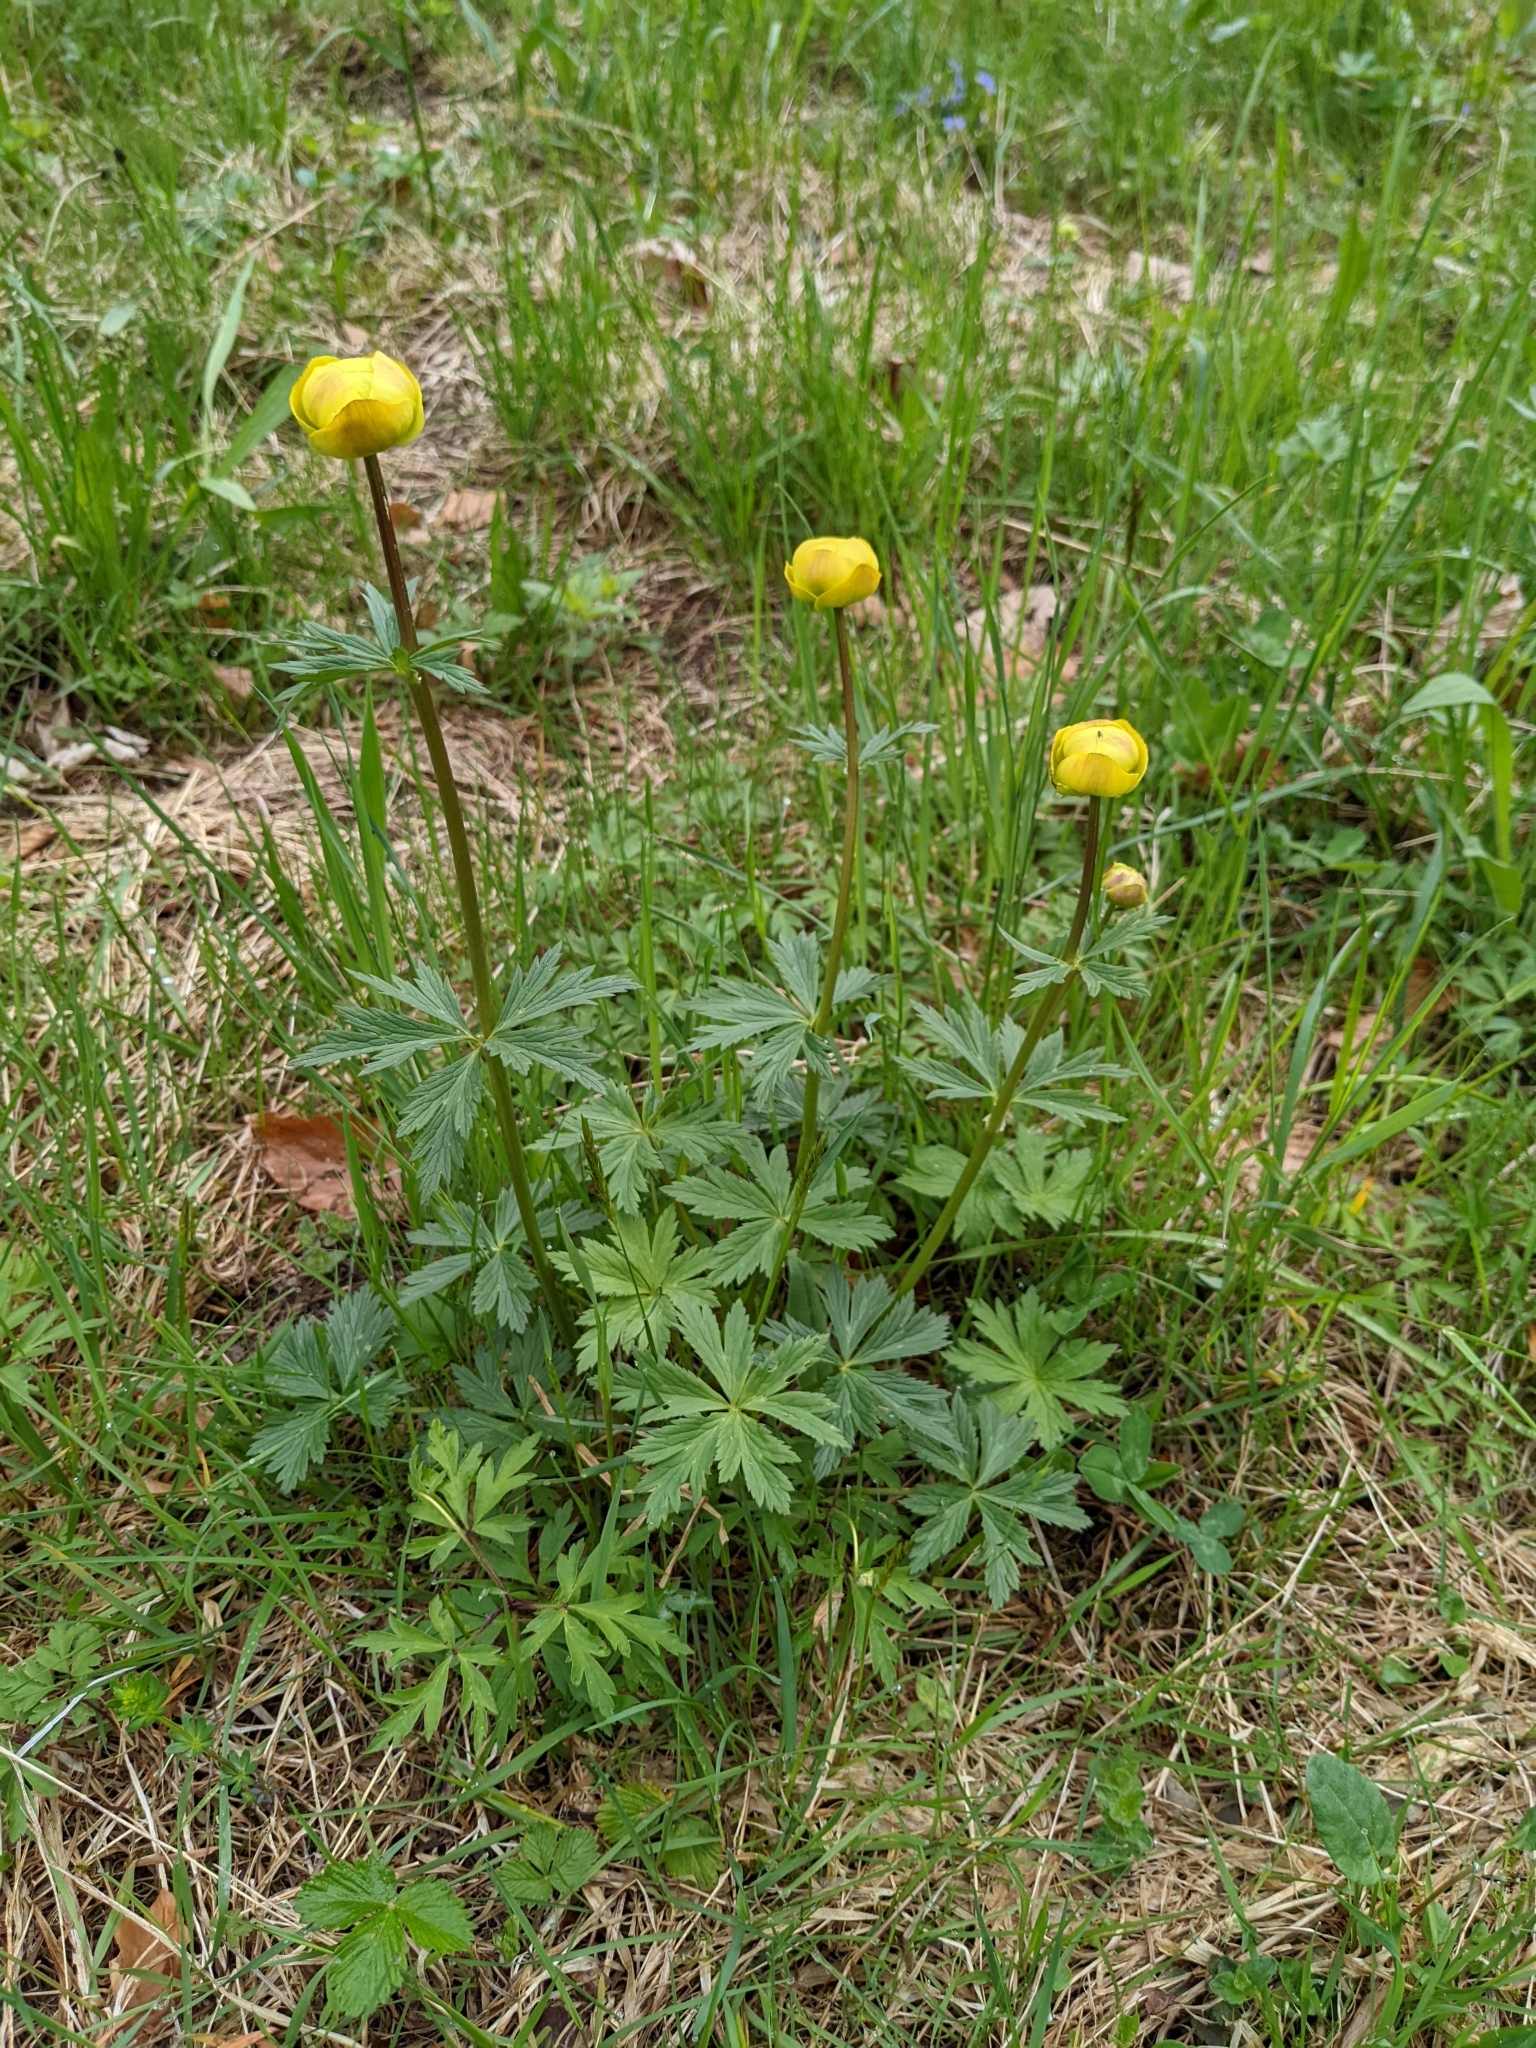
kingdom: Plantae
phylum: Tracheophyta
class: Magnoliopsida
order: Ranunculales
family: Ranunculaceae
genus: Trollius
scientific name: Trollius europaeus
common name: European globeflower
